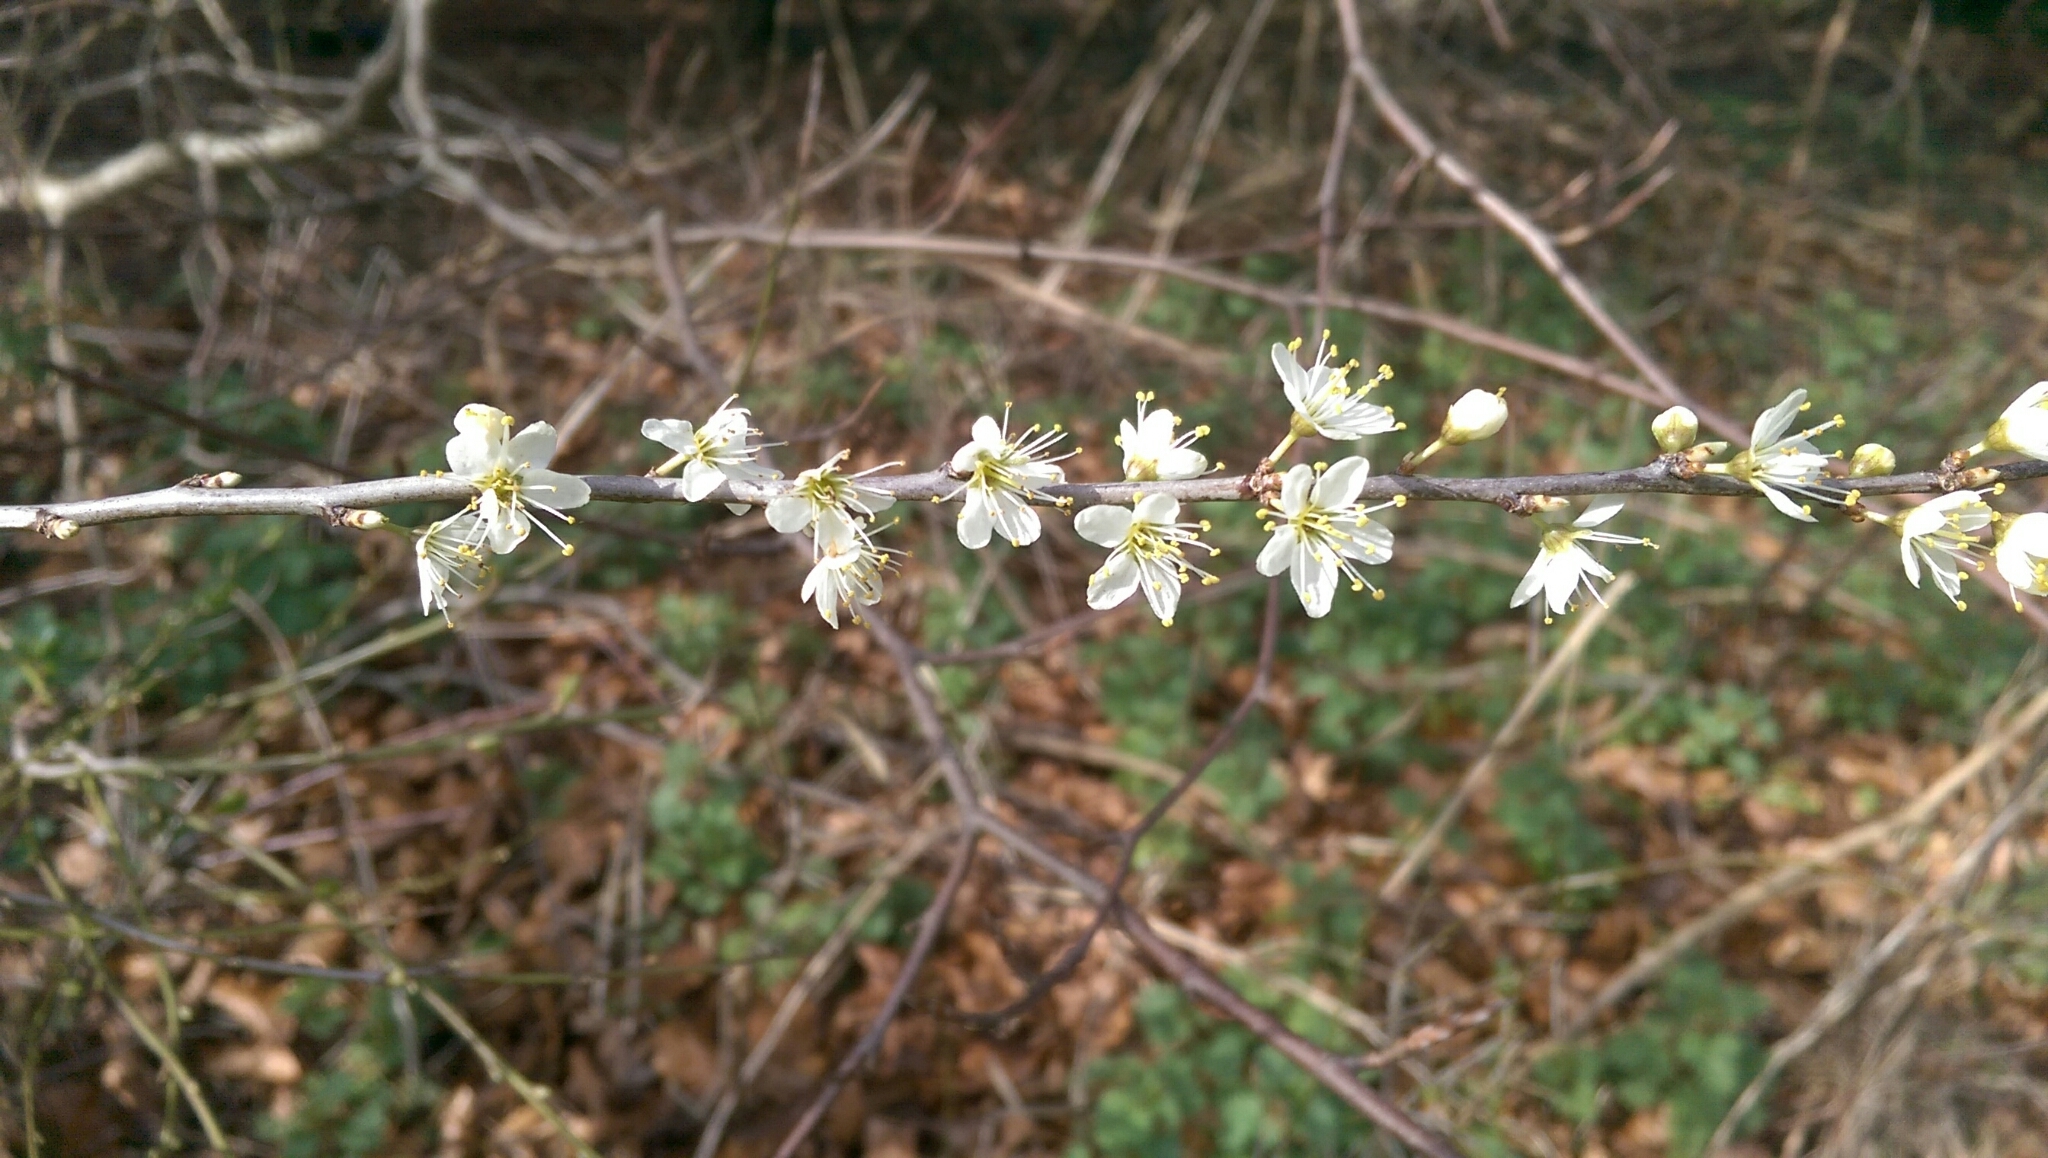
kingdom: Plantae
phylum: Tracheophyta
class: Magnoliopsida
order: Rosales
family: Rosaceae
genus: Prunus
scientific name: Prunus spinosa
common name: Blackthorn
